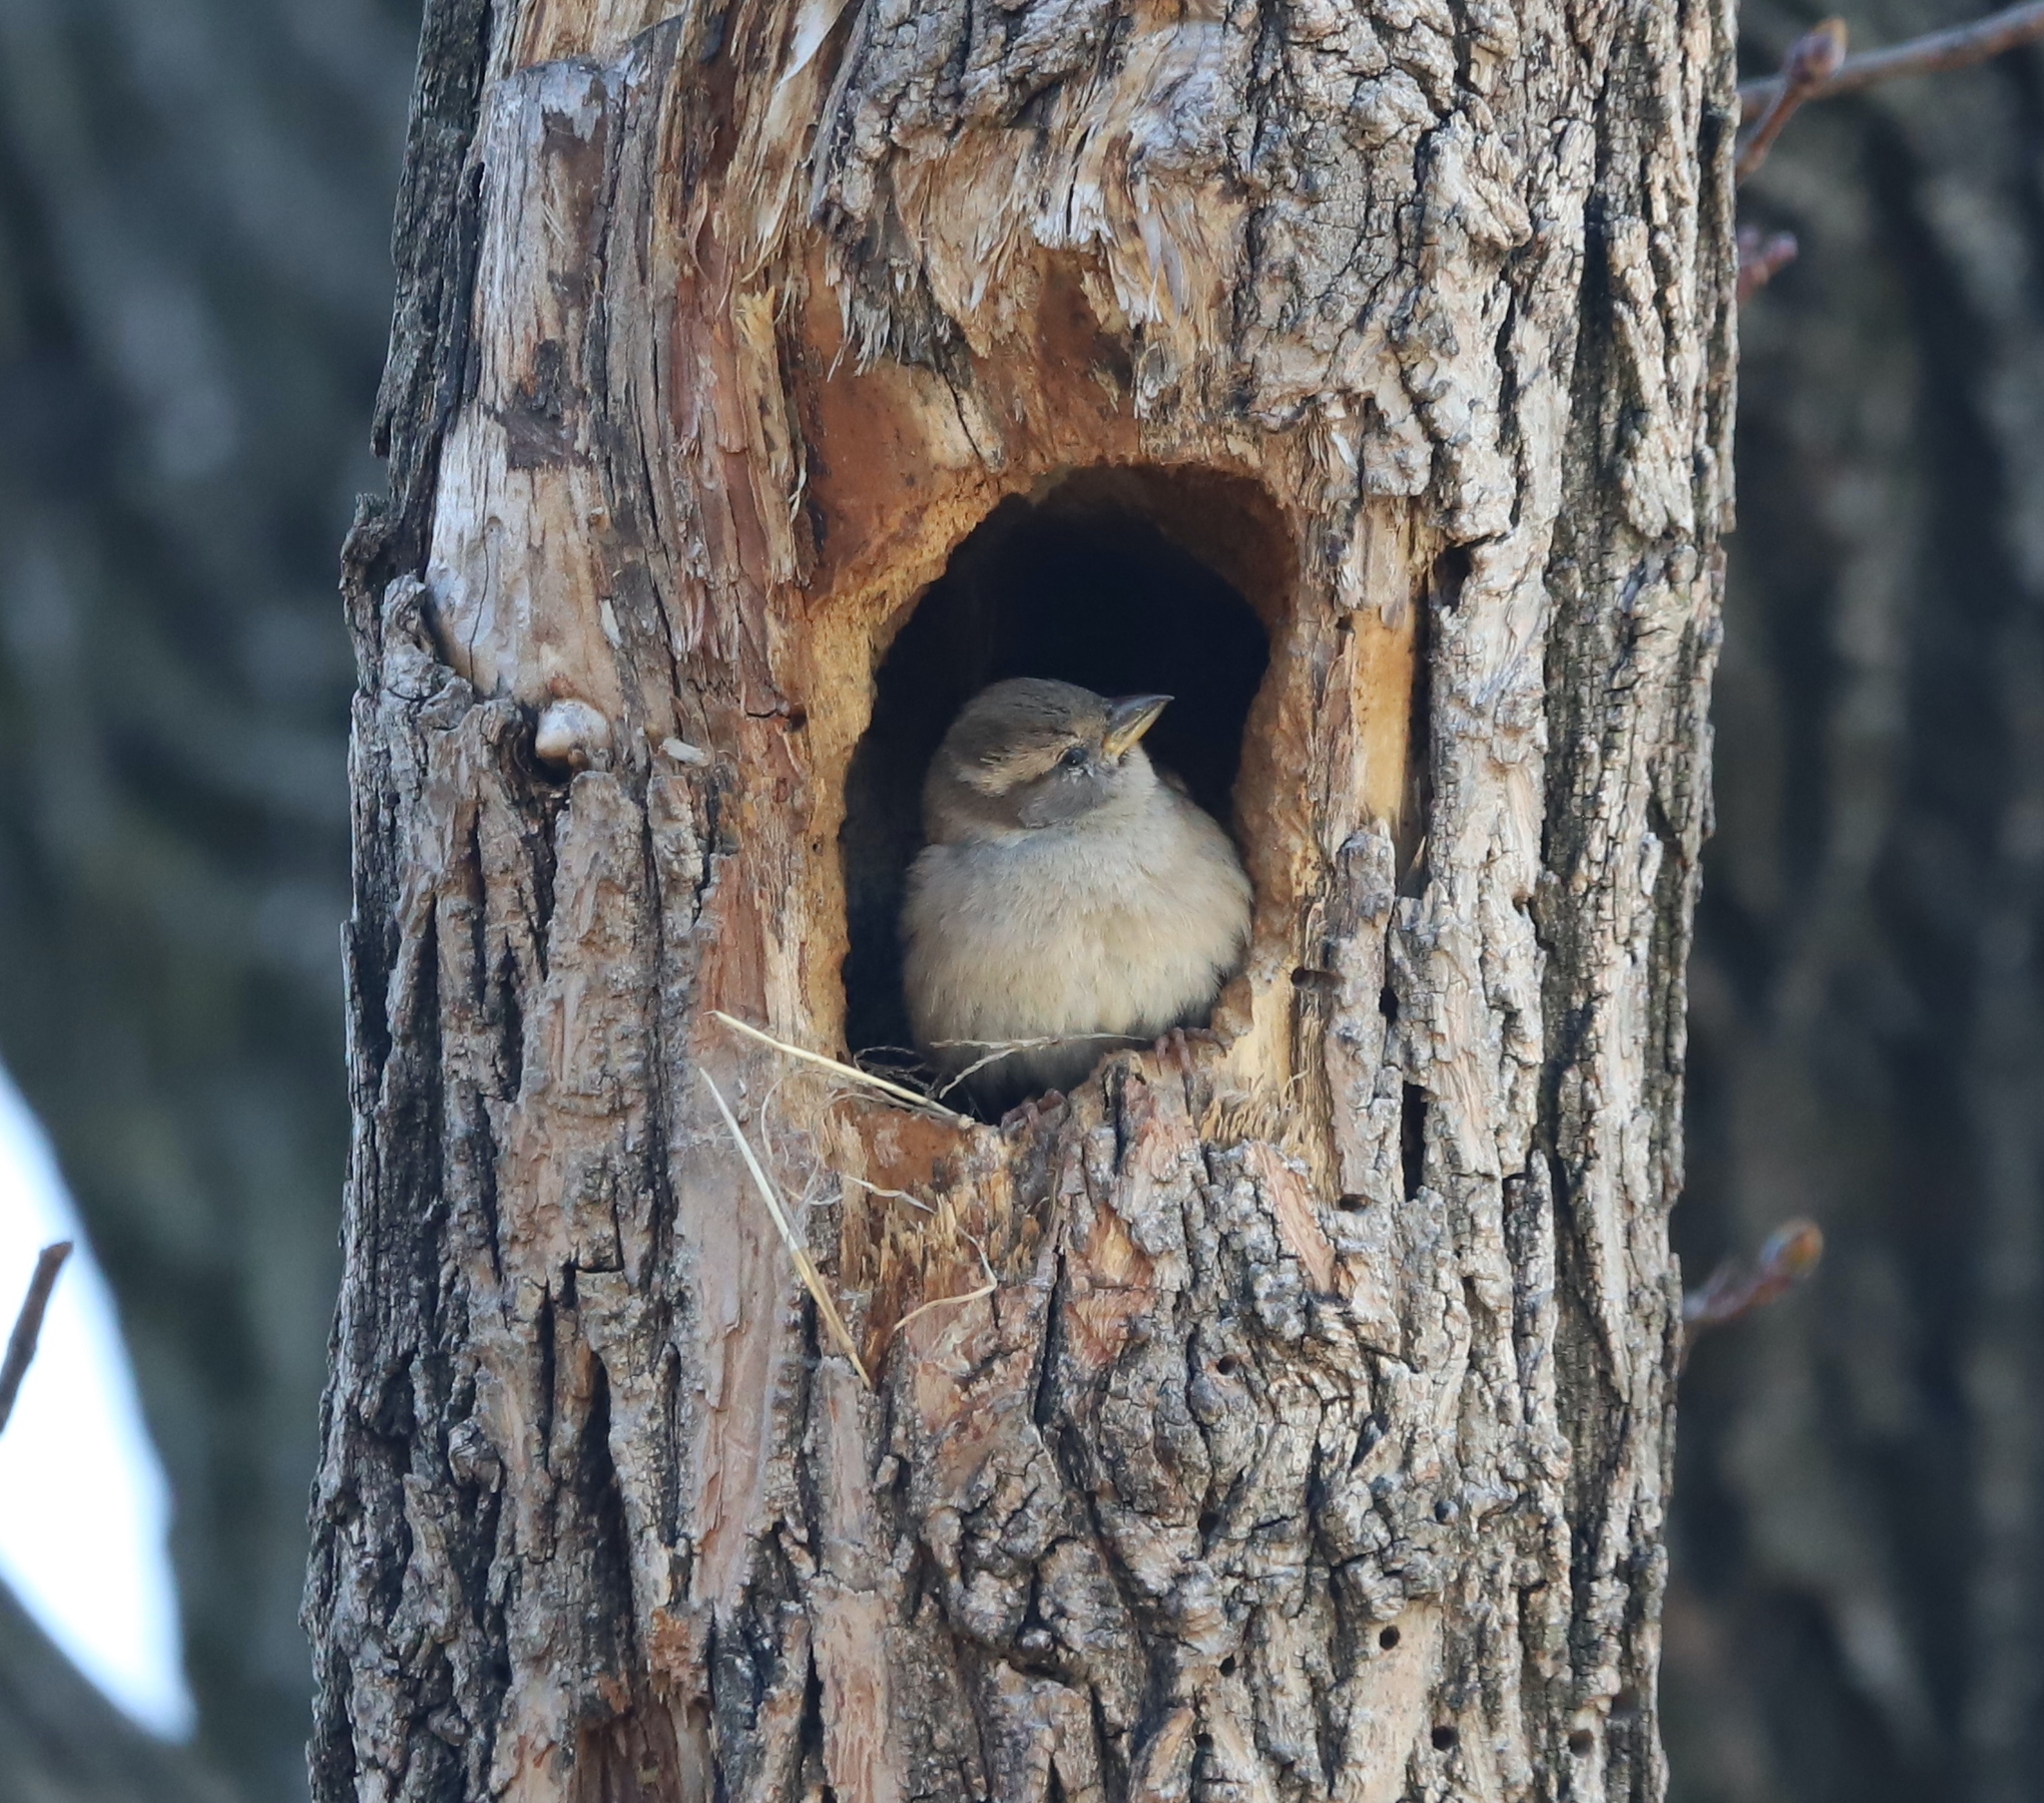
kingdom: Animalia
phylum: Chordata
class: Aves
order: Passeriformes
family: Passeridae
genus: Passer
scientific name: Passer domesticus
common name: House sparrow
